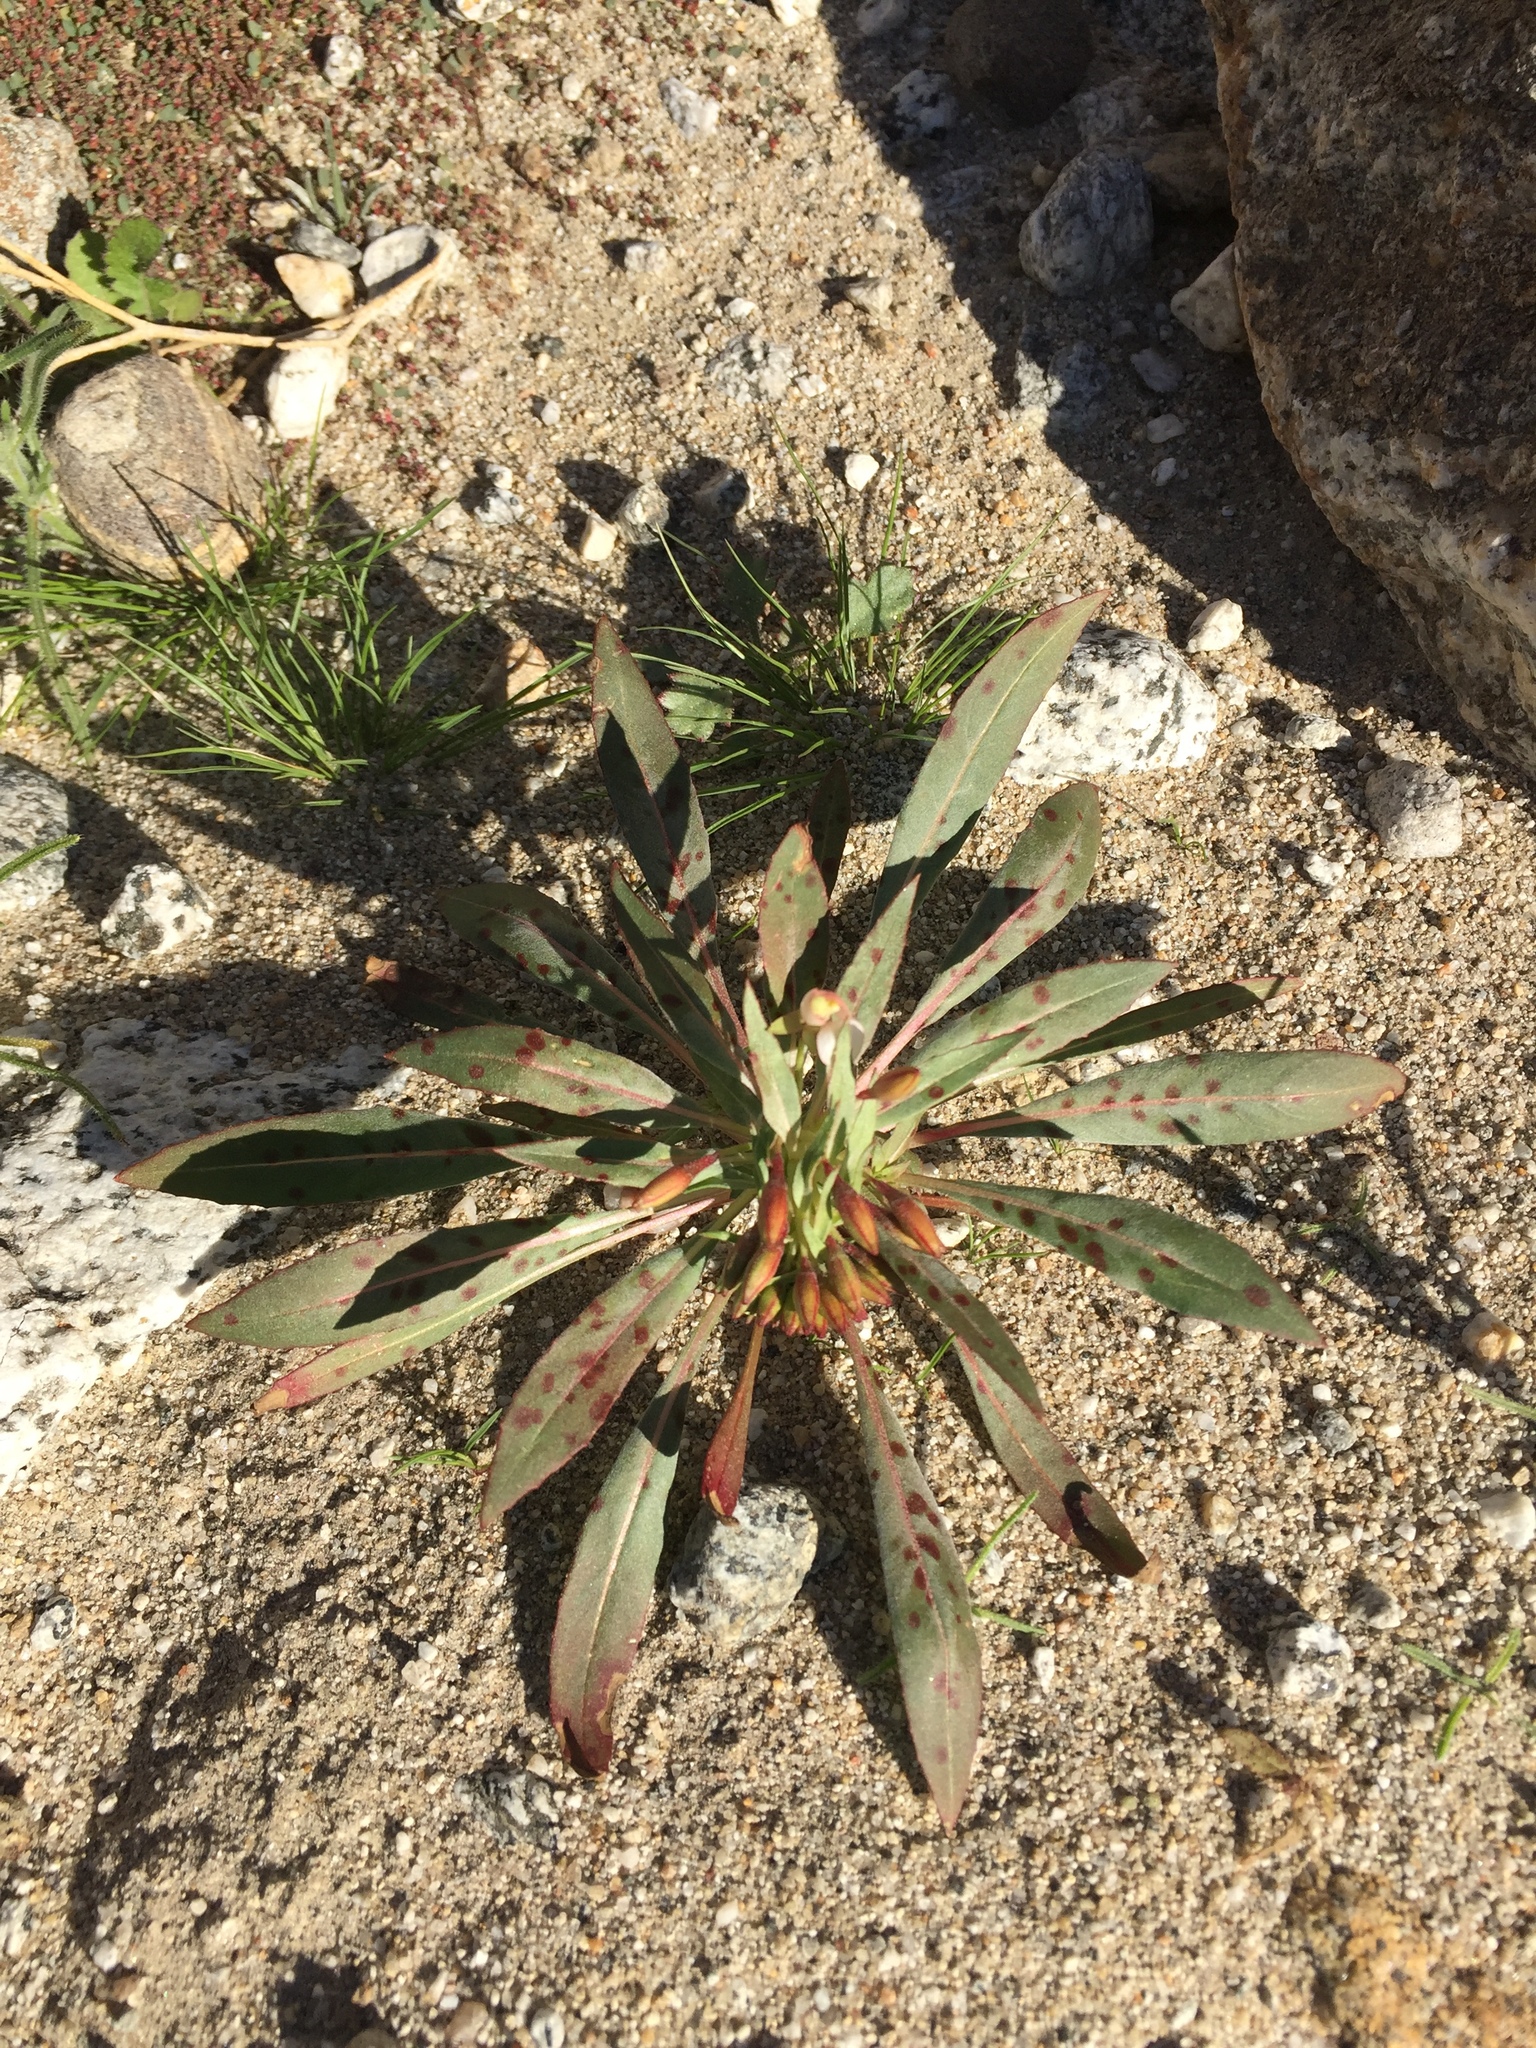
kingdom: Plantae
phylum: Tracheophyta
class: Magnoliopsida
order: Myrtales
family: Onagraceae
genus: Eremothera
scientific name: Eremothera boothii
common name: Booth's evening primrose
